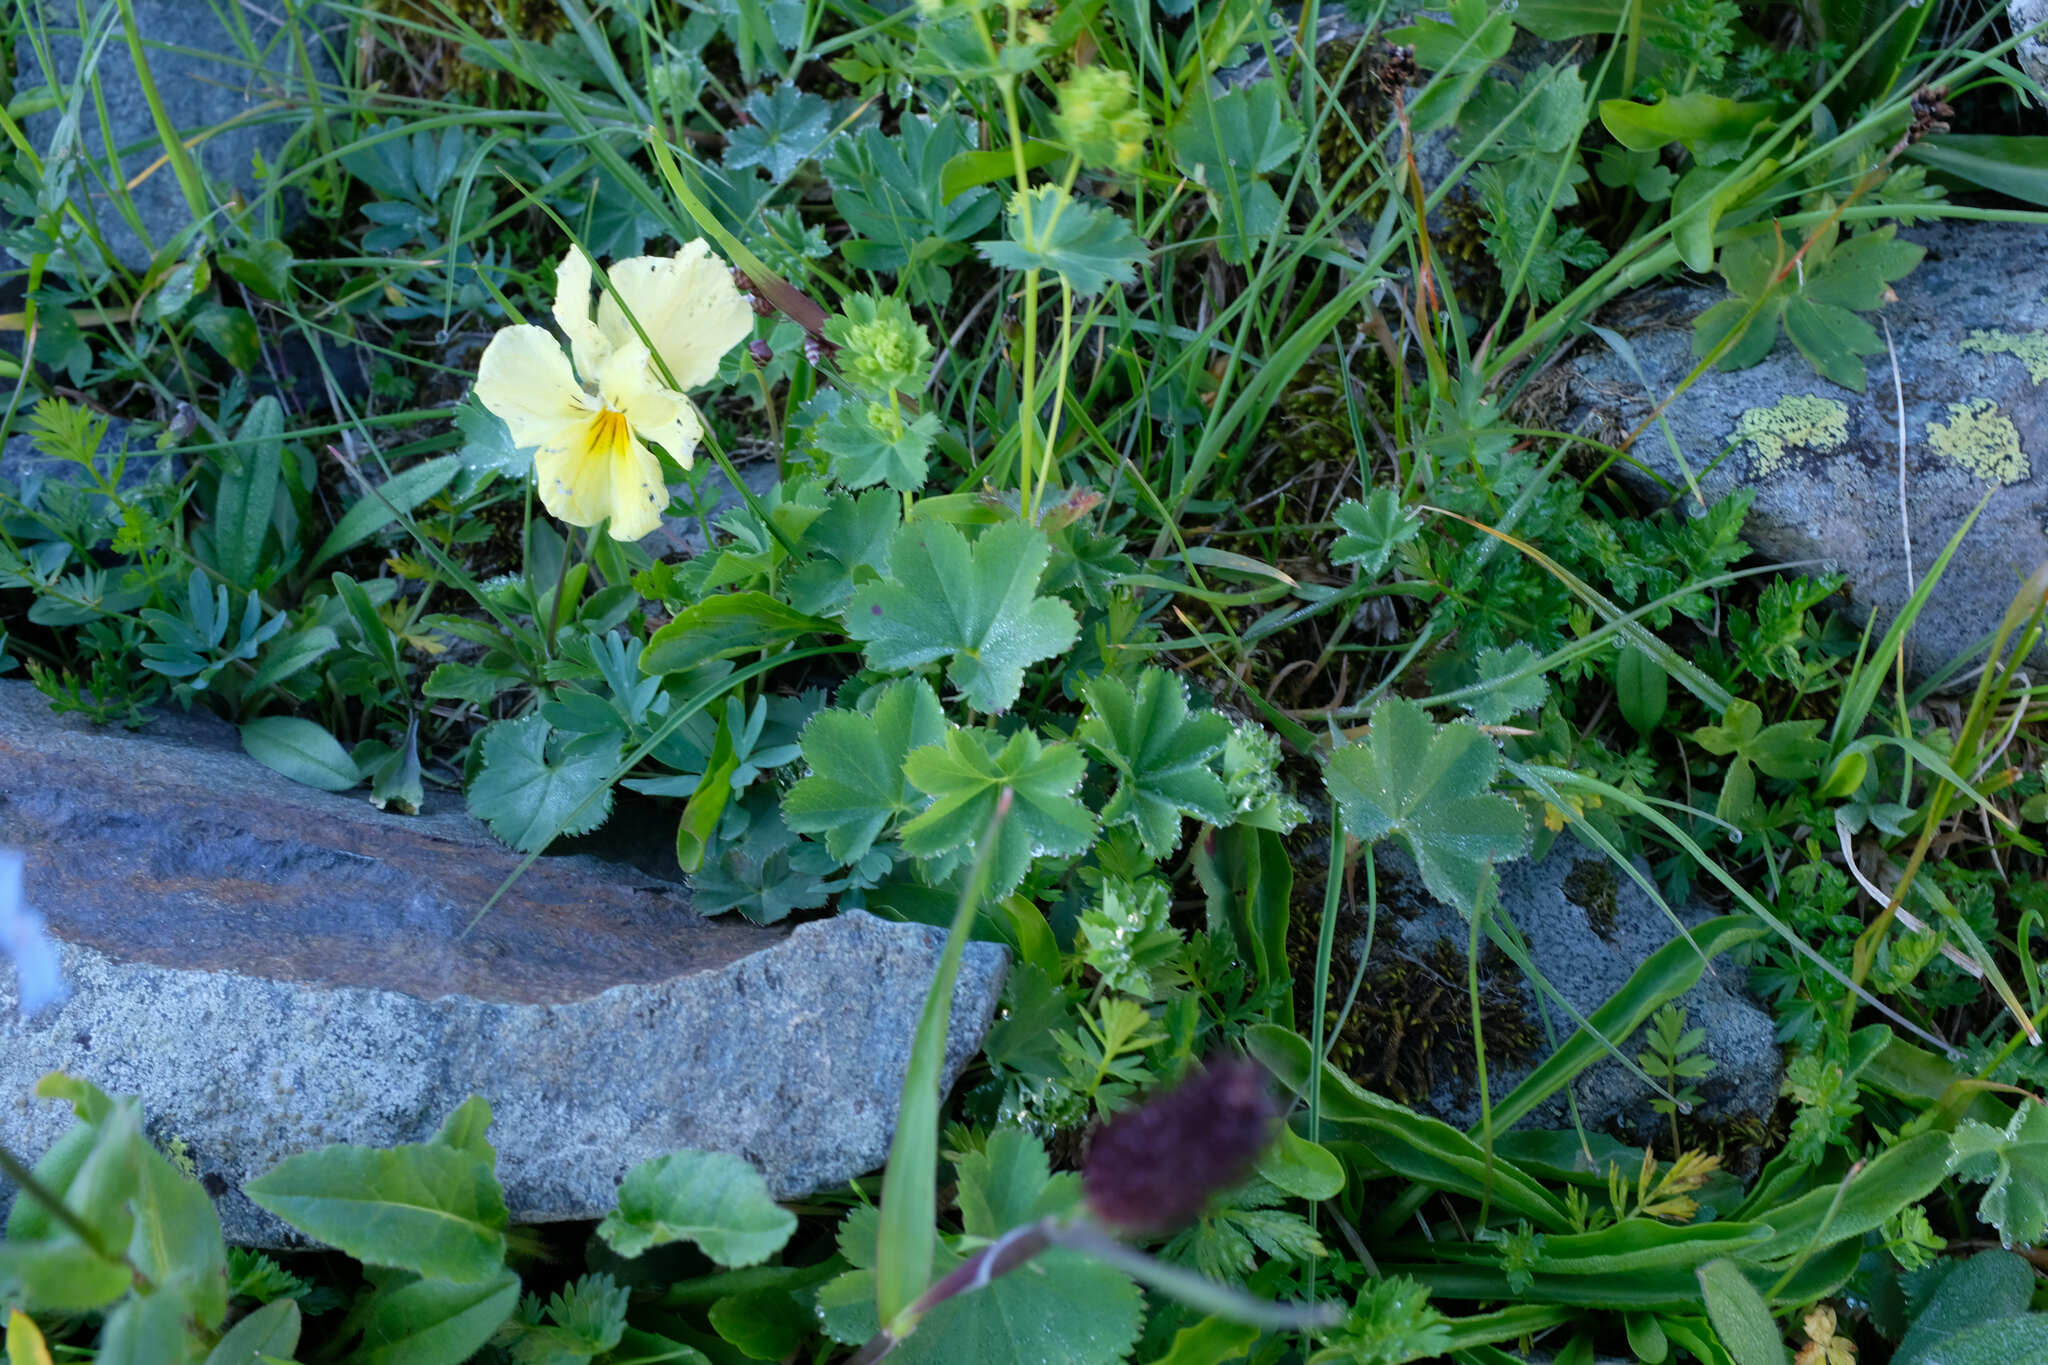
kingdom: Plantae
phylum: Tracheophyta
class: Magnoliopsida
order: Malpighiales
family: Violaceae
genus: Viola
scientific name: Viola oreades
